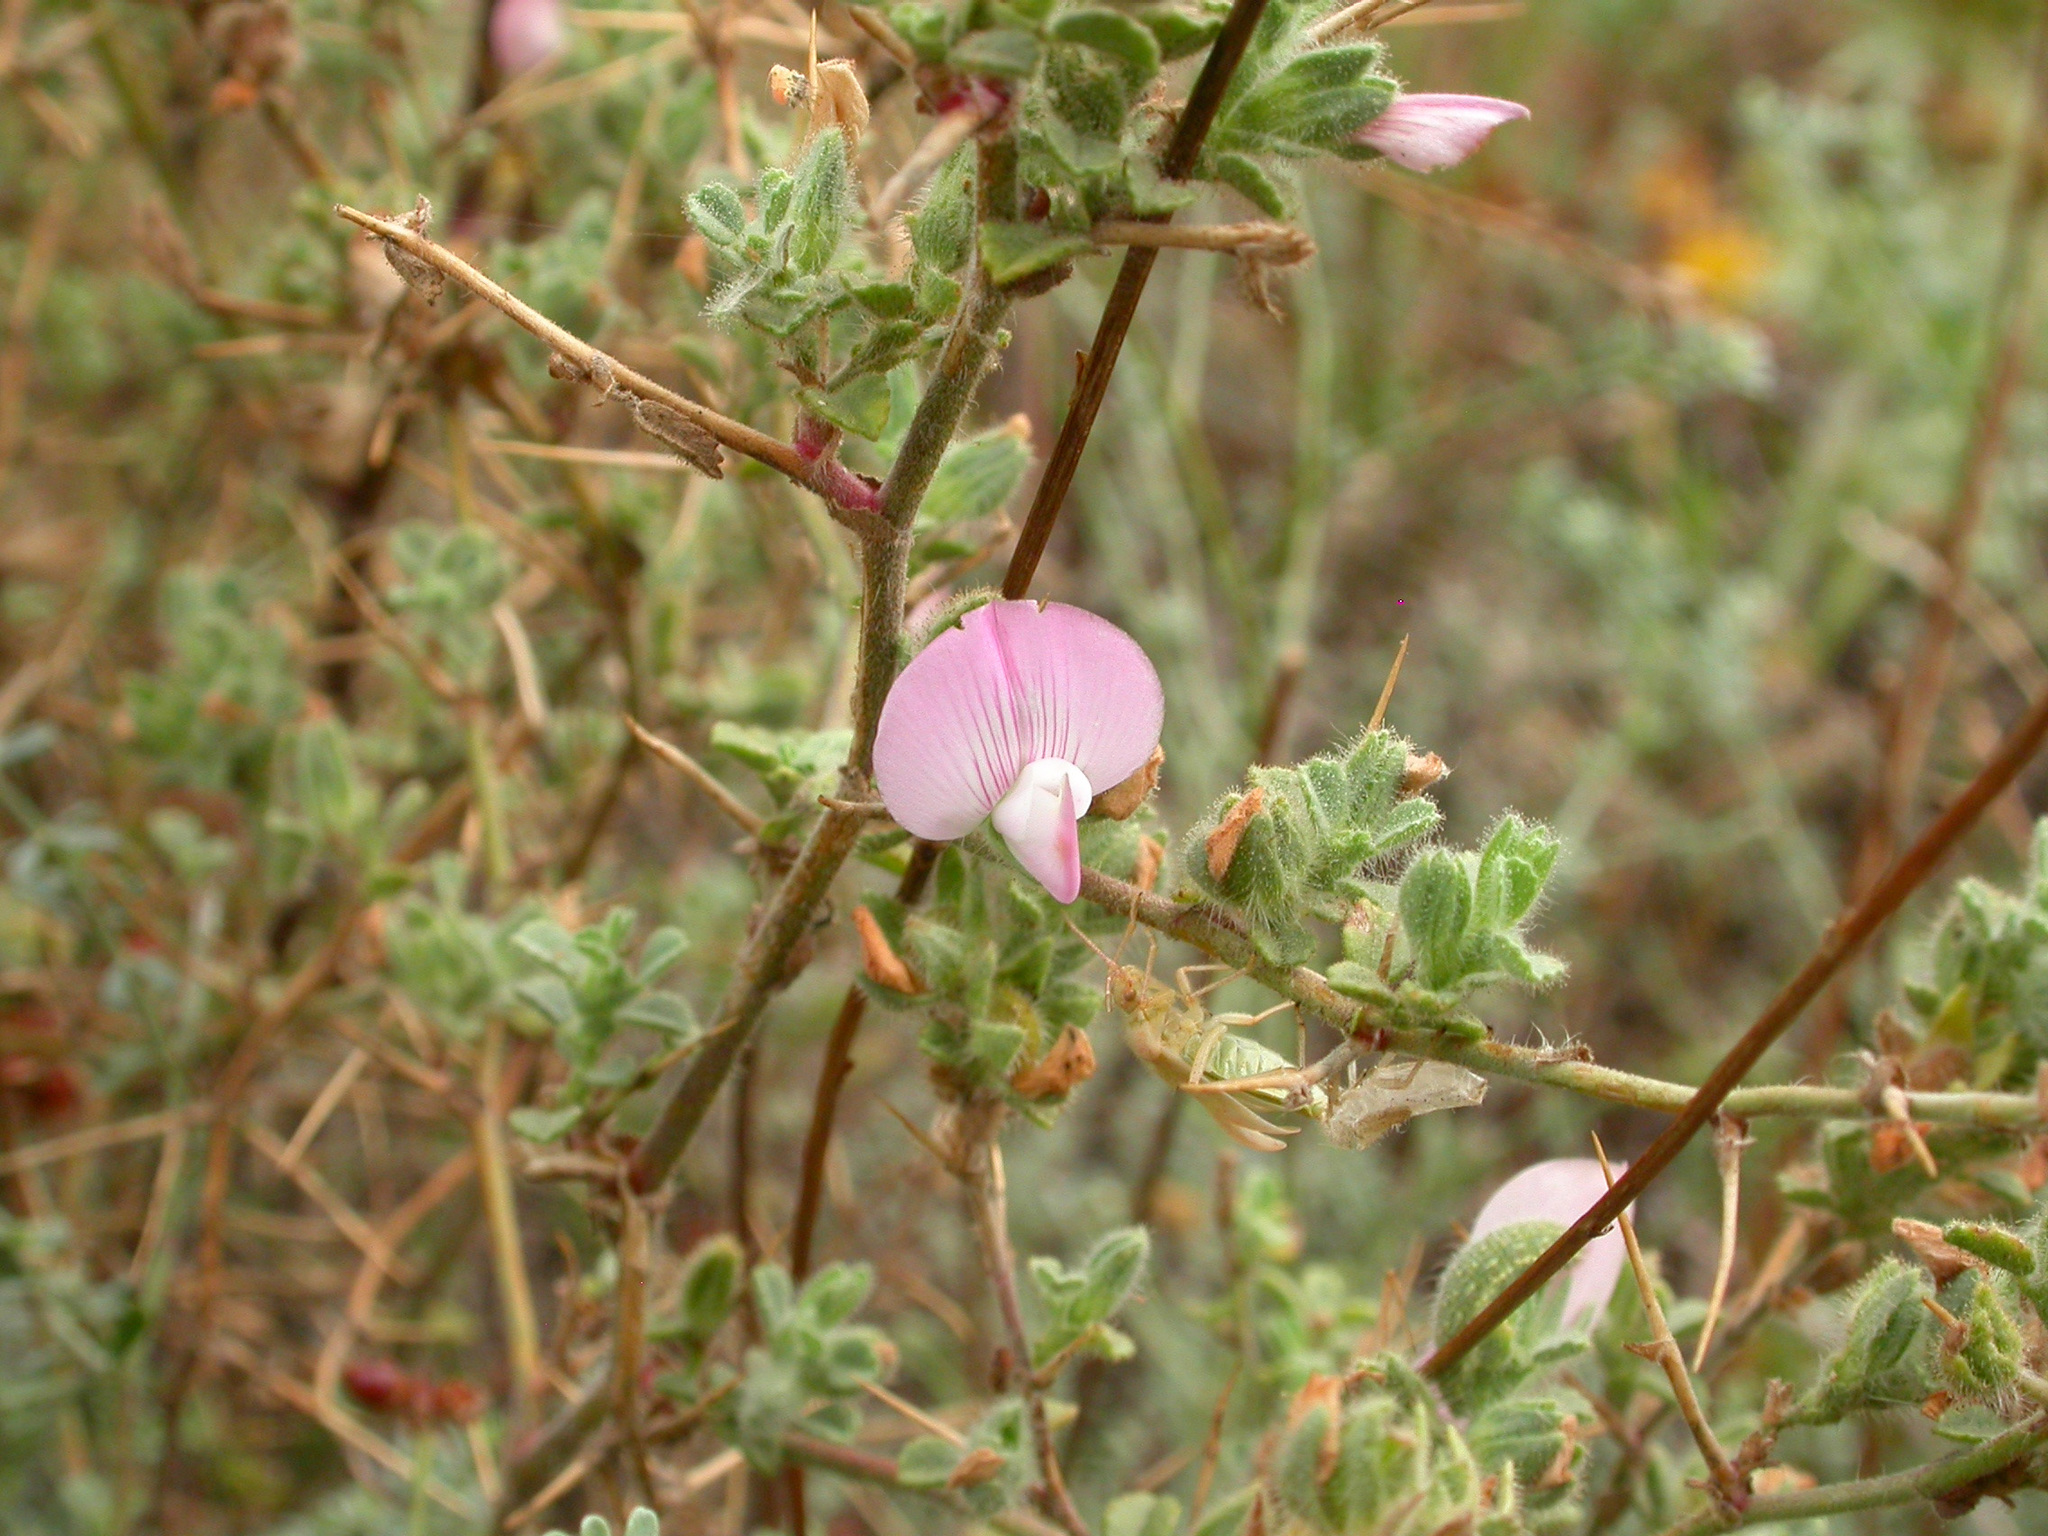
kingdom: Plantae
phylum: Tracheophyta
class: Magnoliopsida
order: Fabales
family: Fabaceae
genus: Ononis
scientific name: Ononis spinosa
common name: Spiny restharrow
